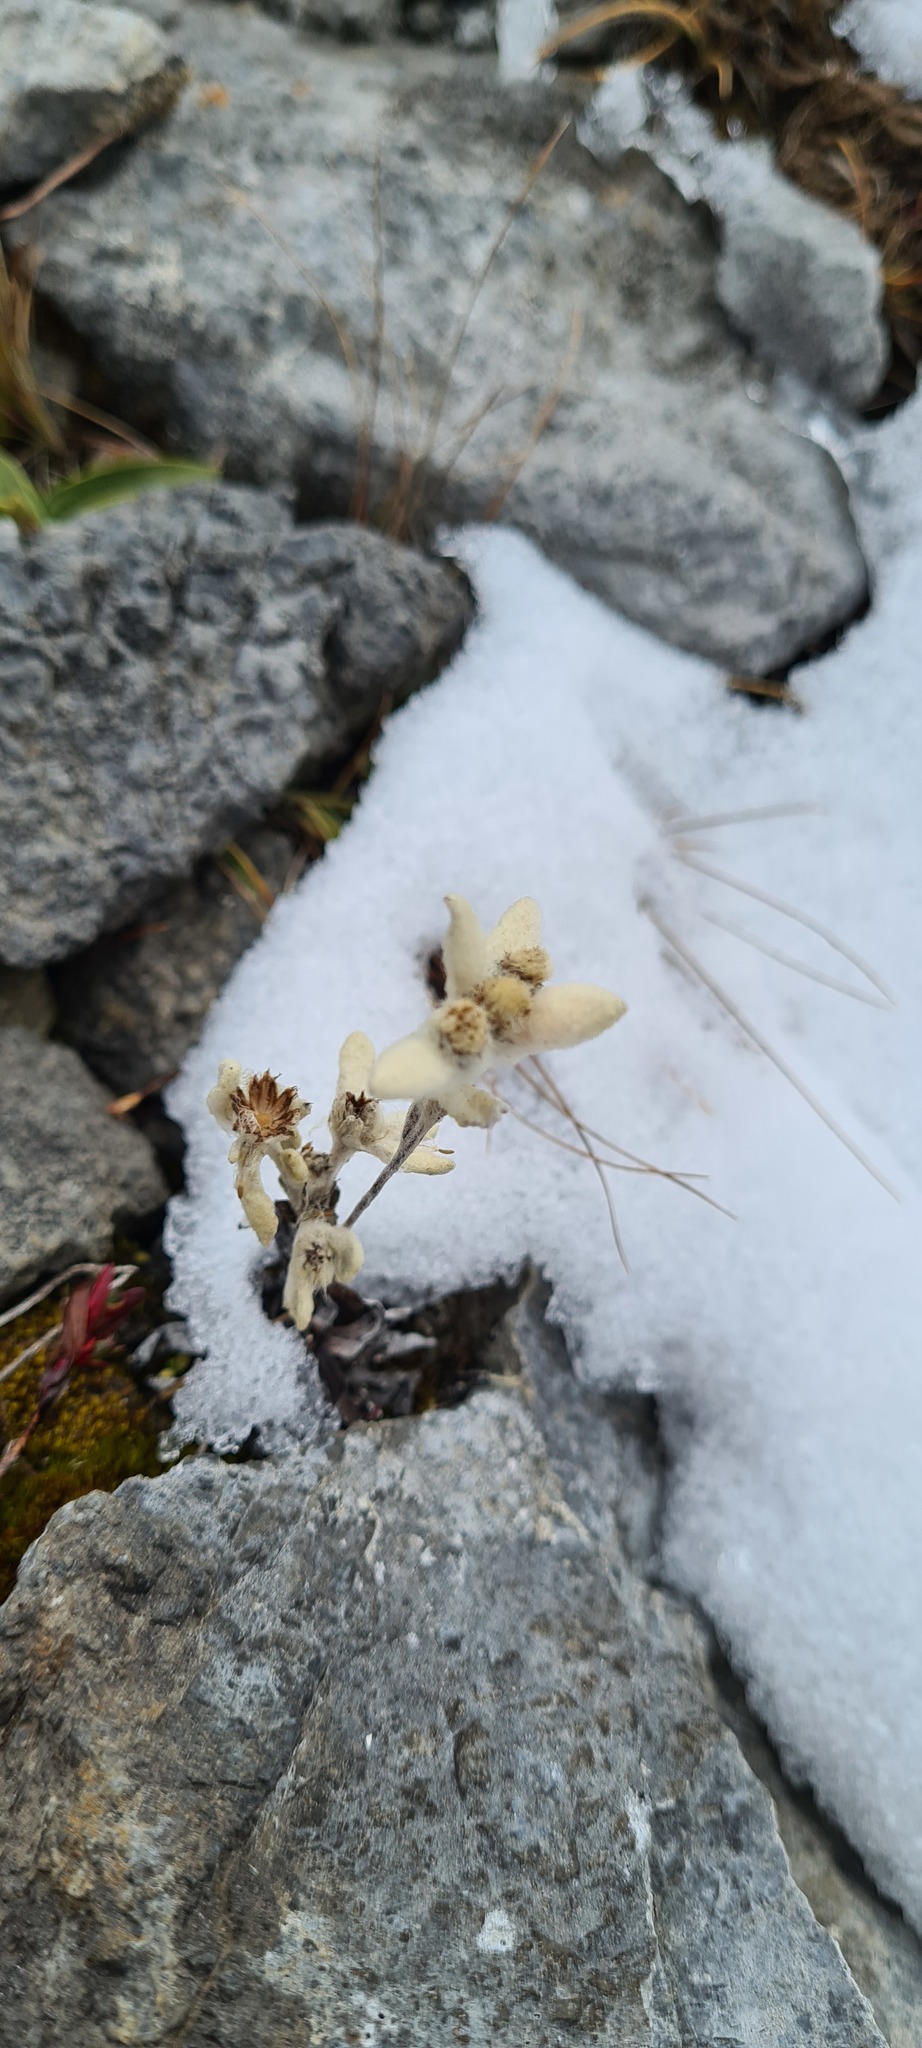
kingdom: Plantae
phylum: Tracheophyta
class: Magnoliopsida
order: Asterales
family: Asteraceae
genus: Leontopodium
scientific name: Leontopodium nivale
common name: Edelweiss
